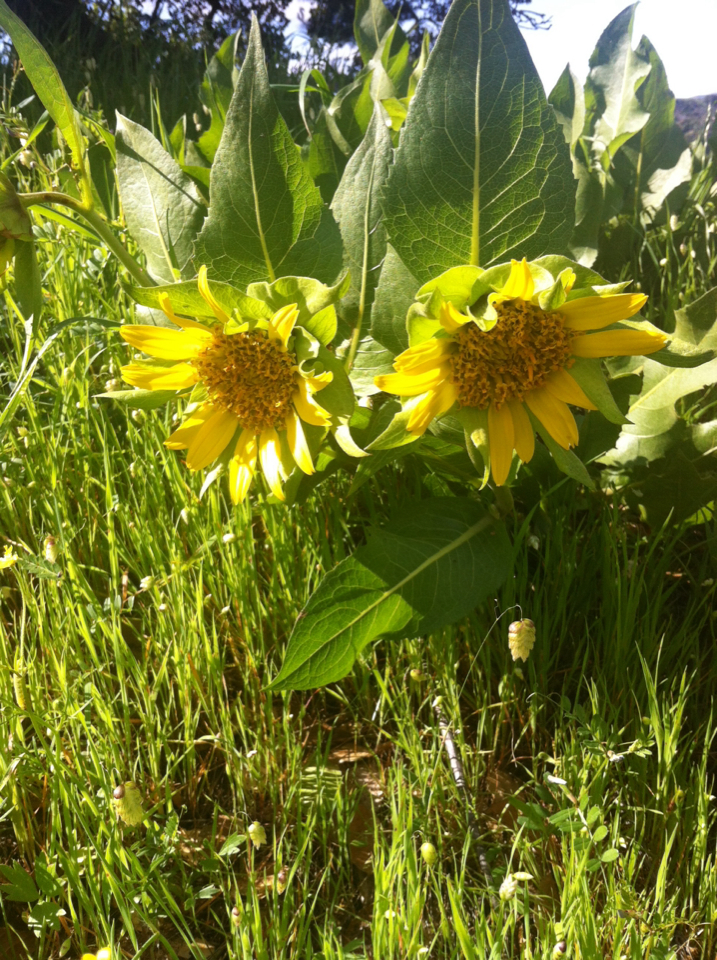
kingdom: Plantae
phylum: Tracheophyta
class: Magnoliopsida
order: Asterales
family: Asteraceae
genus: Wyethia
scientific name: Wyethia glabra
